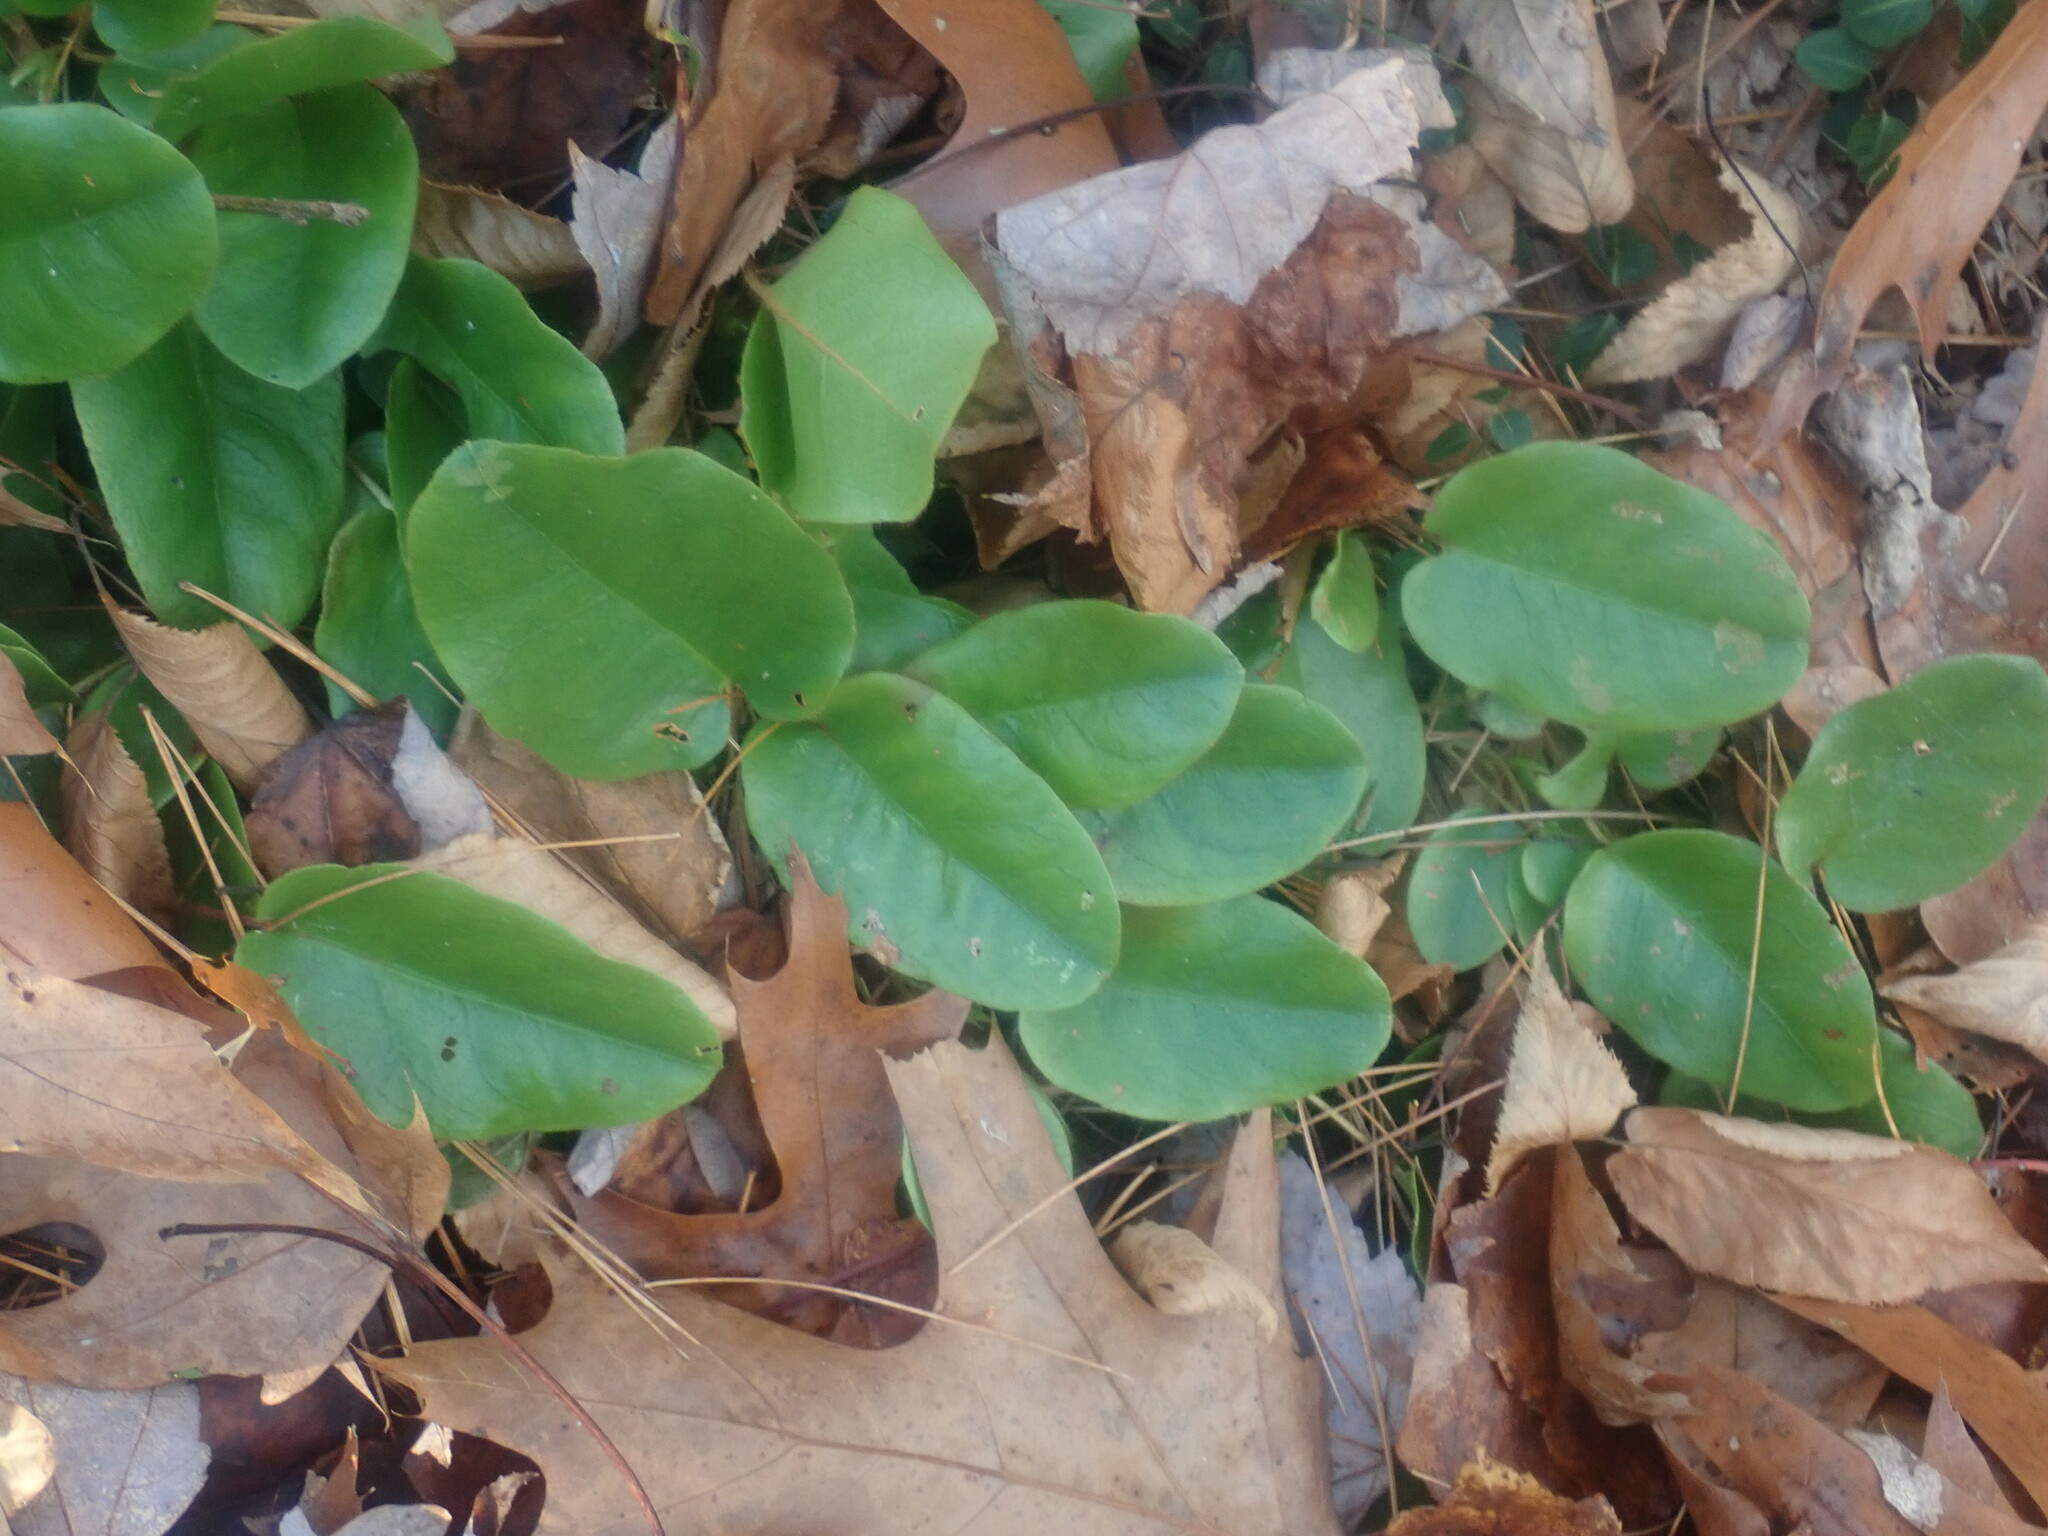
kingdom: Plantae
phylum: Tracheophyta
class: Magnoliopsida
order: Ericales
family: Ericaceae
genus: Epigaea
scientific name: Epigaea repens
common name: Gravelroot
